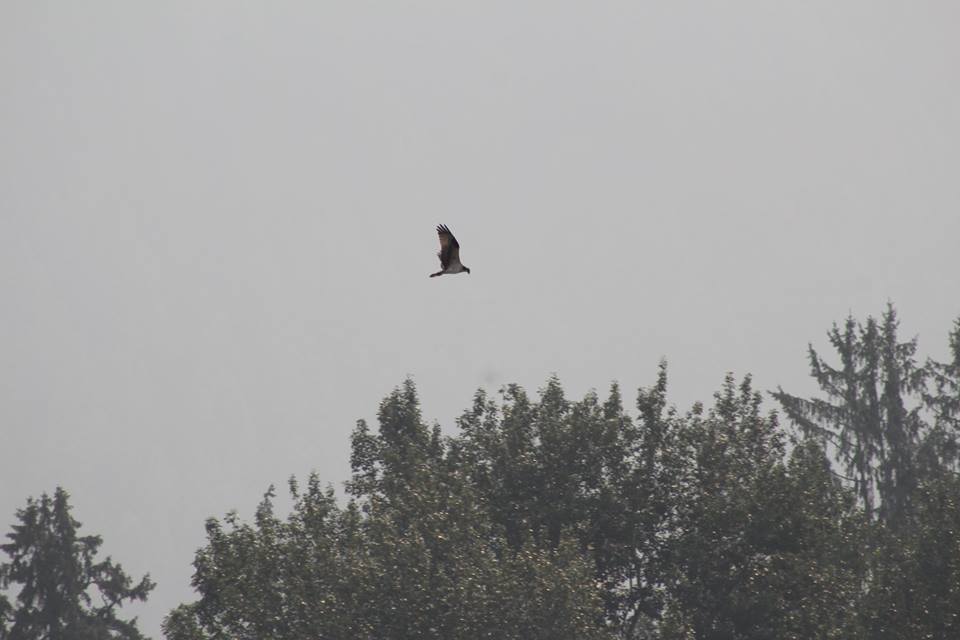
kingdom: Animalia
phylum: Chordata
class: Aves
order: Accipitriformes
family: Pandionidae
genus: Pandion
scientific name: Pandion haliaetus
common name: Osprey
